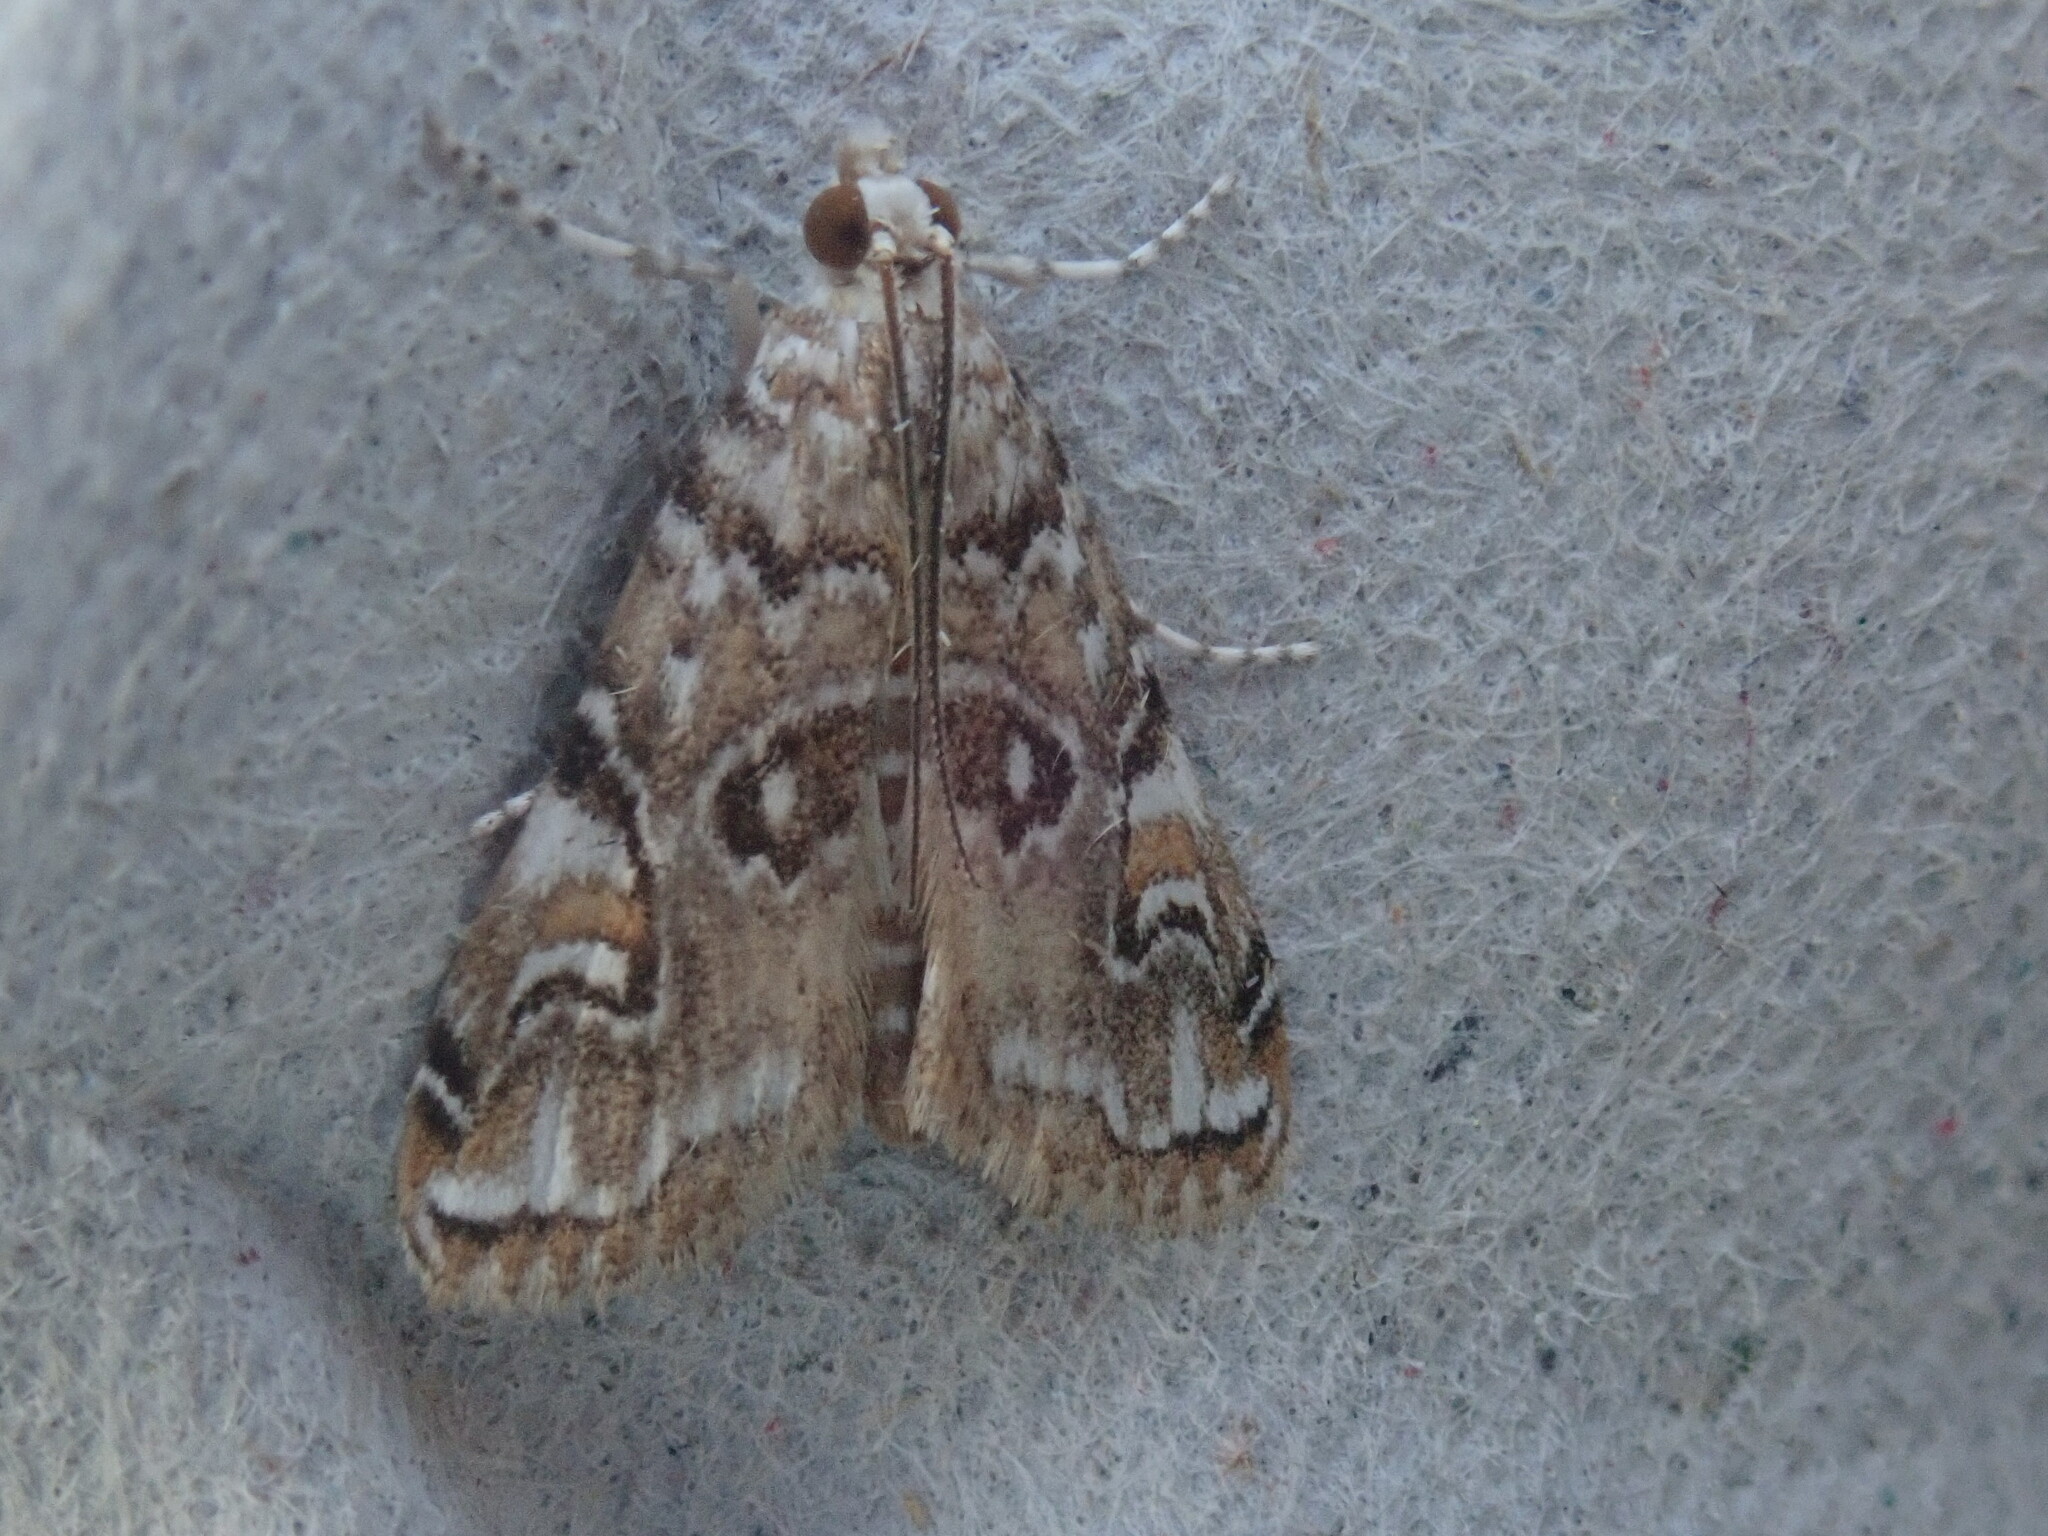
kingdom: Animalia
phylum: Arthropoda
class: Insecta
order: Lepidoptera
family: Crambidae
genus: Elophila
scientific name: Elophila gyralis
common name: Waterlily borer moth
